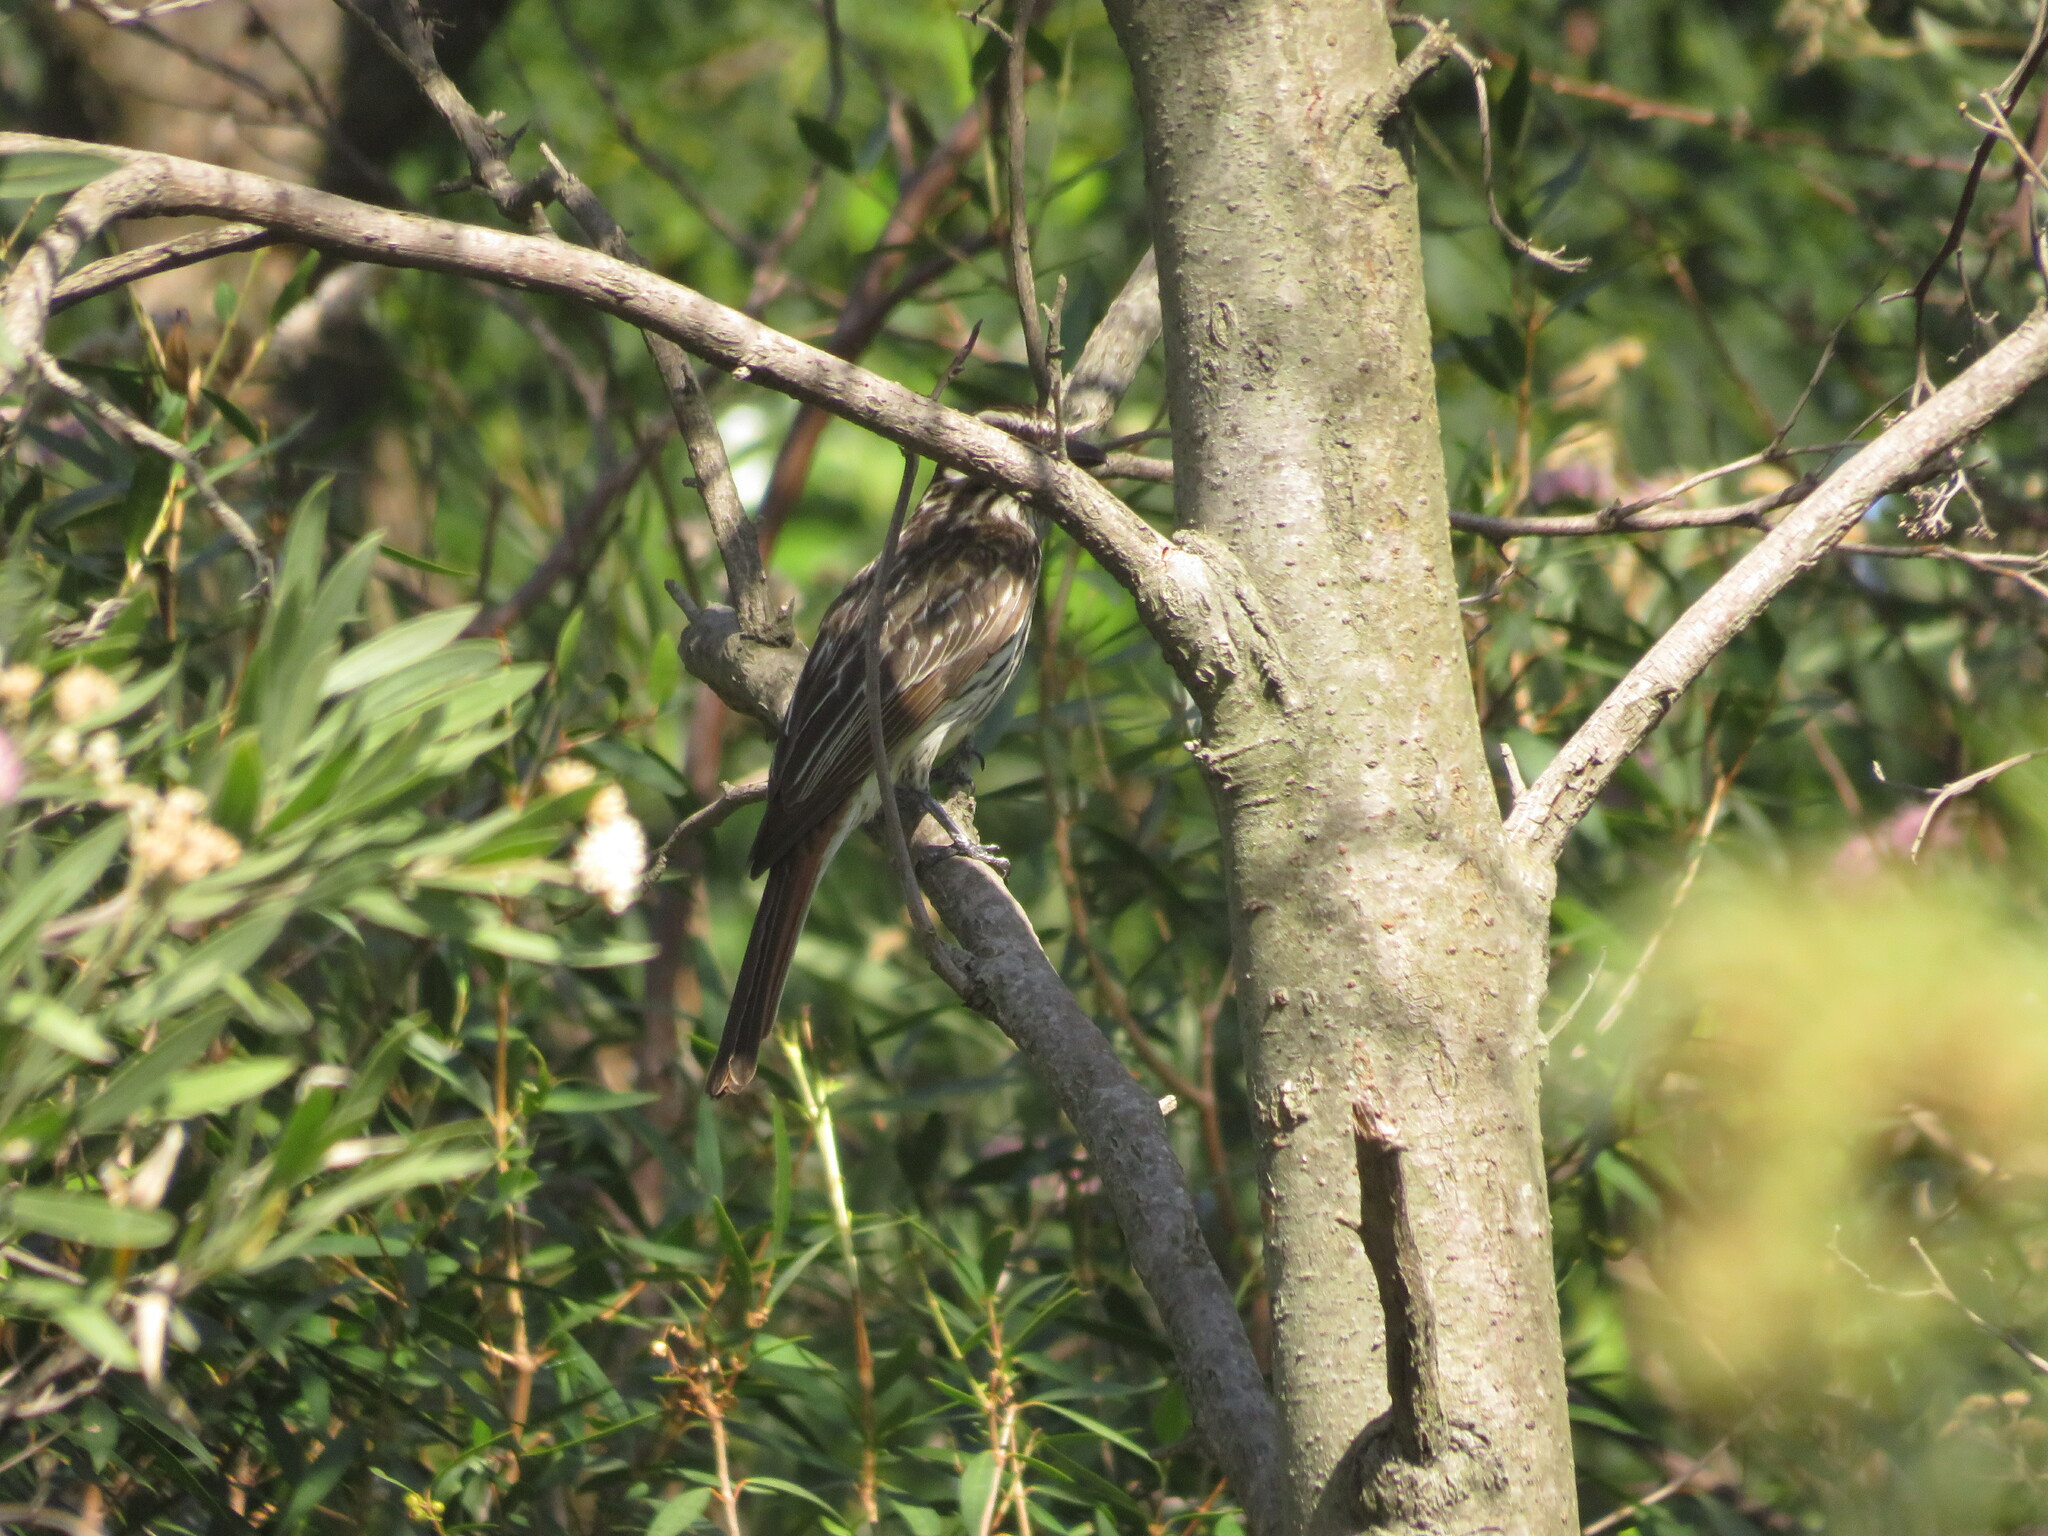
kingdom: Animalia
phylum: Chordata
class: Aves
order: Passeriformes
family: Tyrannidae
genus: Myiodynastes
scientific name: Myiodynastes maculatus
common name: Streaked flycatcher
